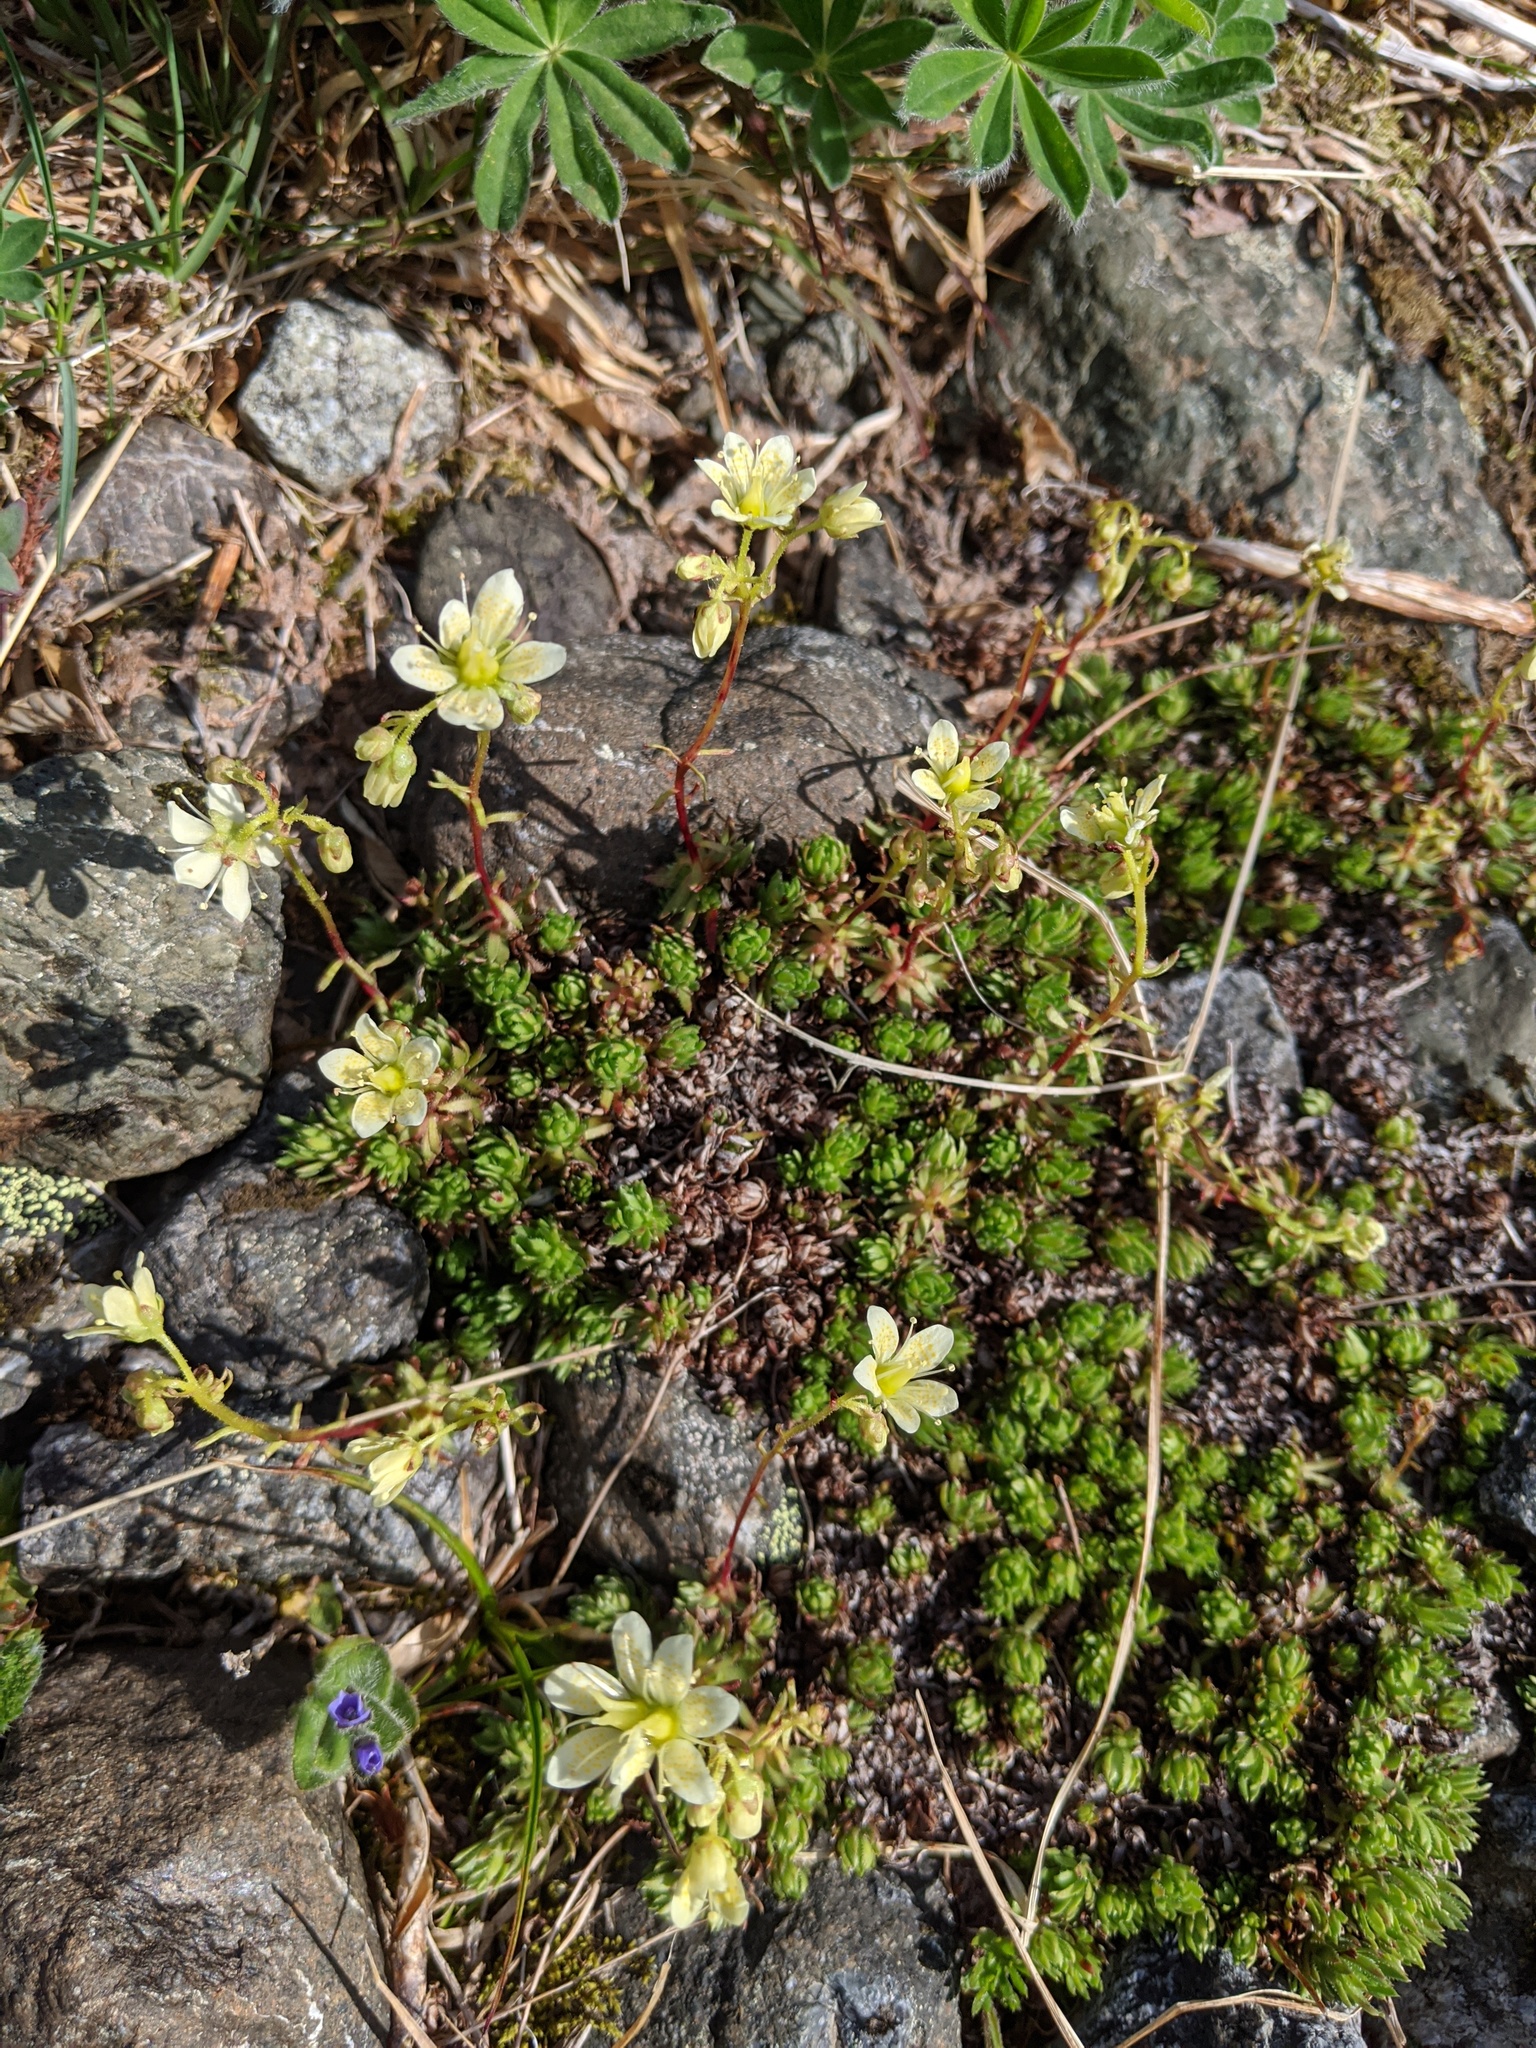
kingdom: Plantae
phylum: Tracheophyta
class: Magnoliopsida
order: Saxifragales
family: Saxifragaceae
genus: Saxifraga
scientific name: Saxifraga bronchialis
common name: Matted saxifrage
